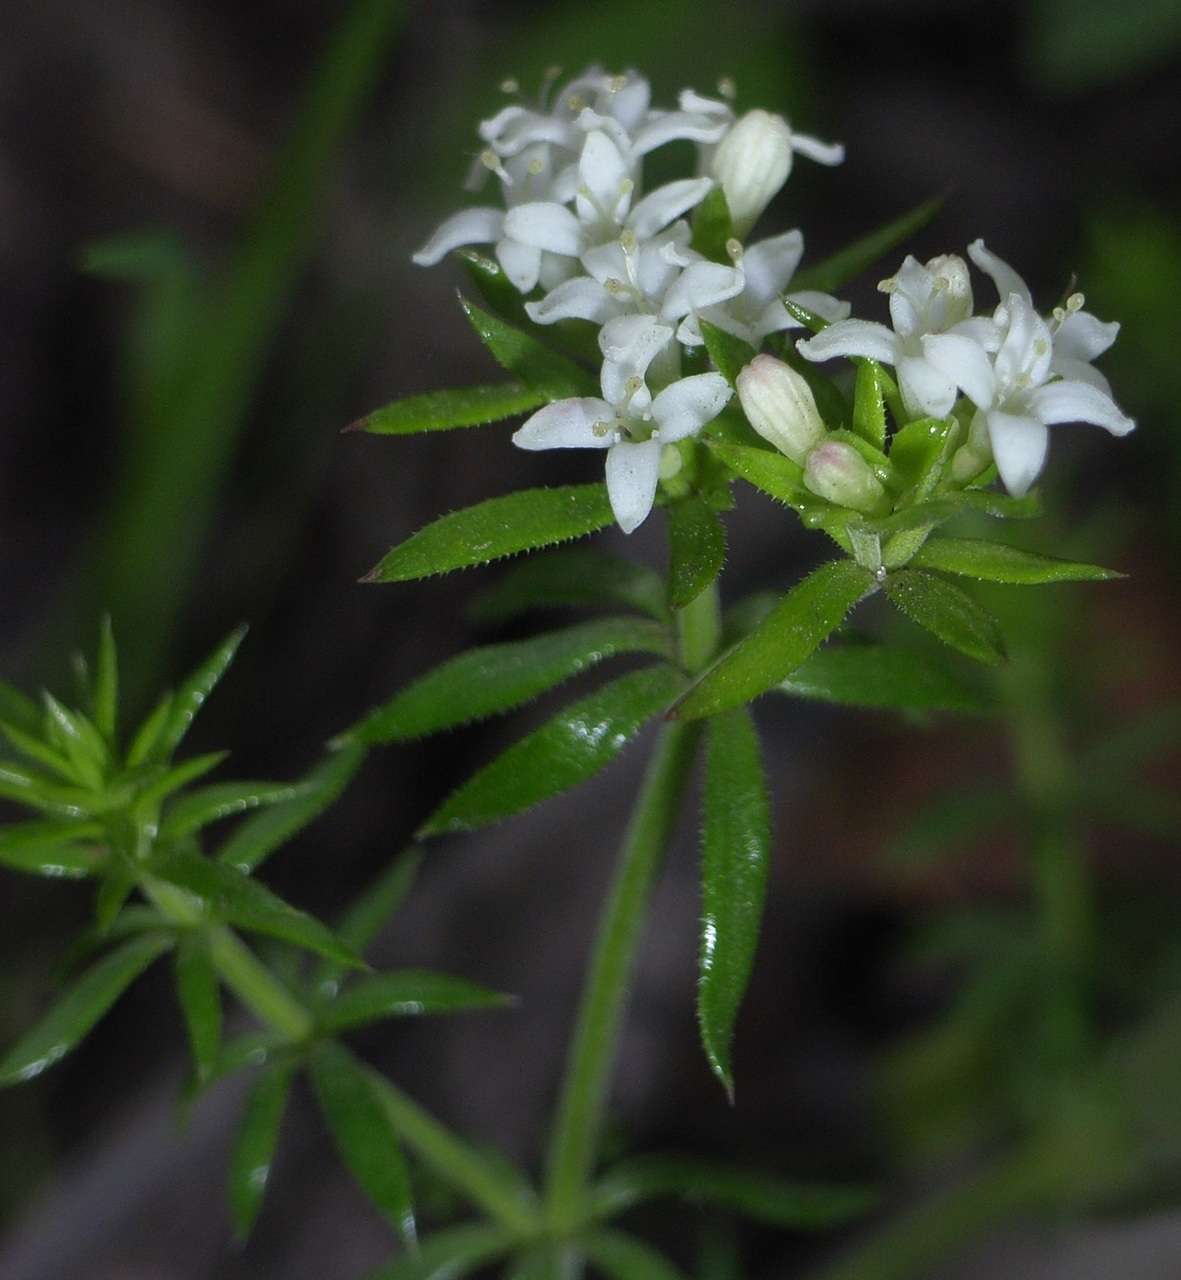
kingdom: Plantae
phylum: Tracheophyta
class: Magnoliopsida
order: Gentianales
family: Rubiaceae
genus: Asperula
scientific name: Asperula scoparia
